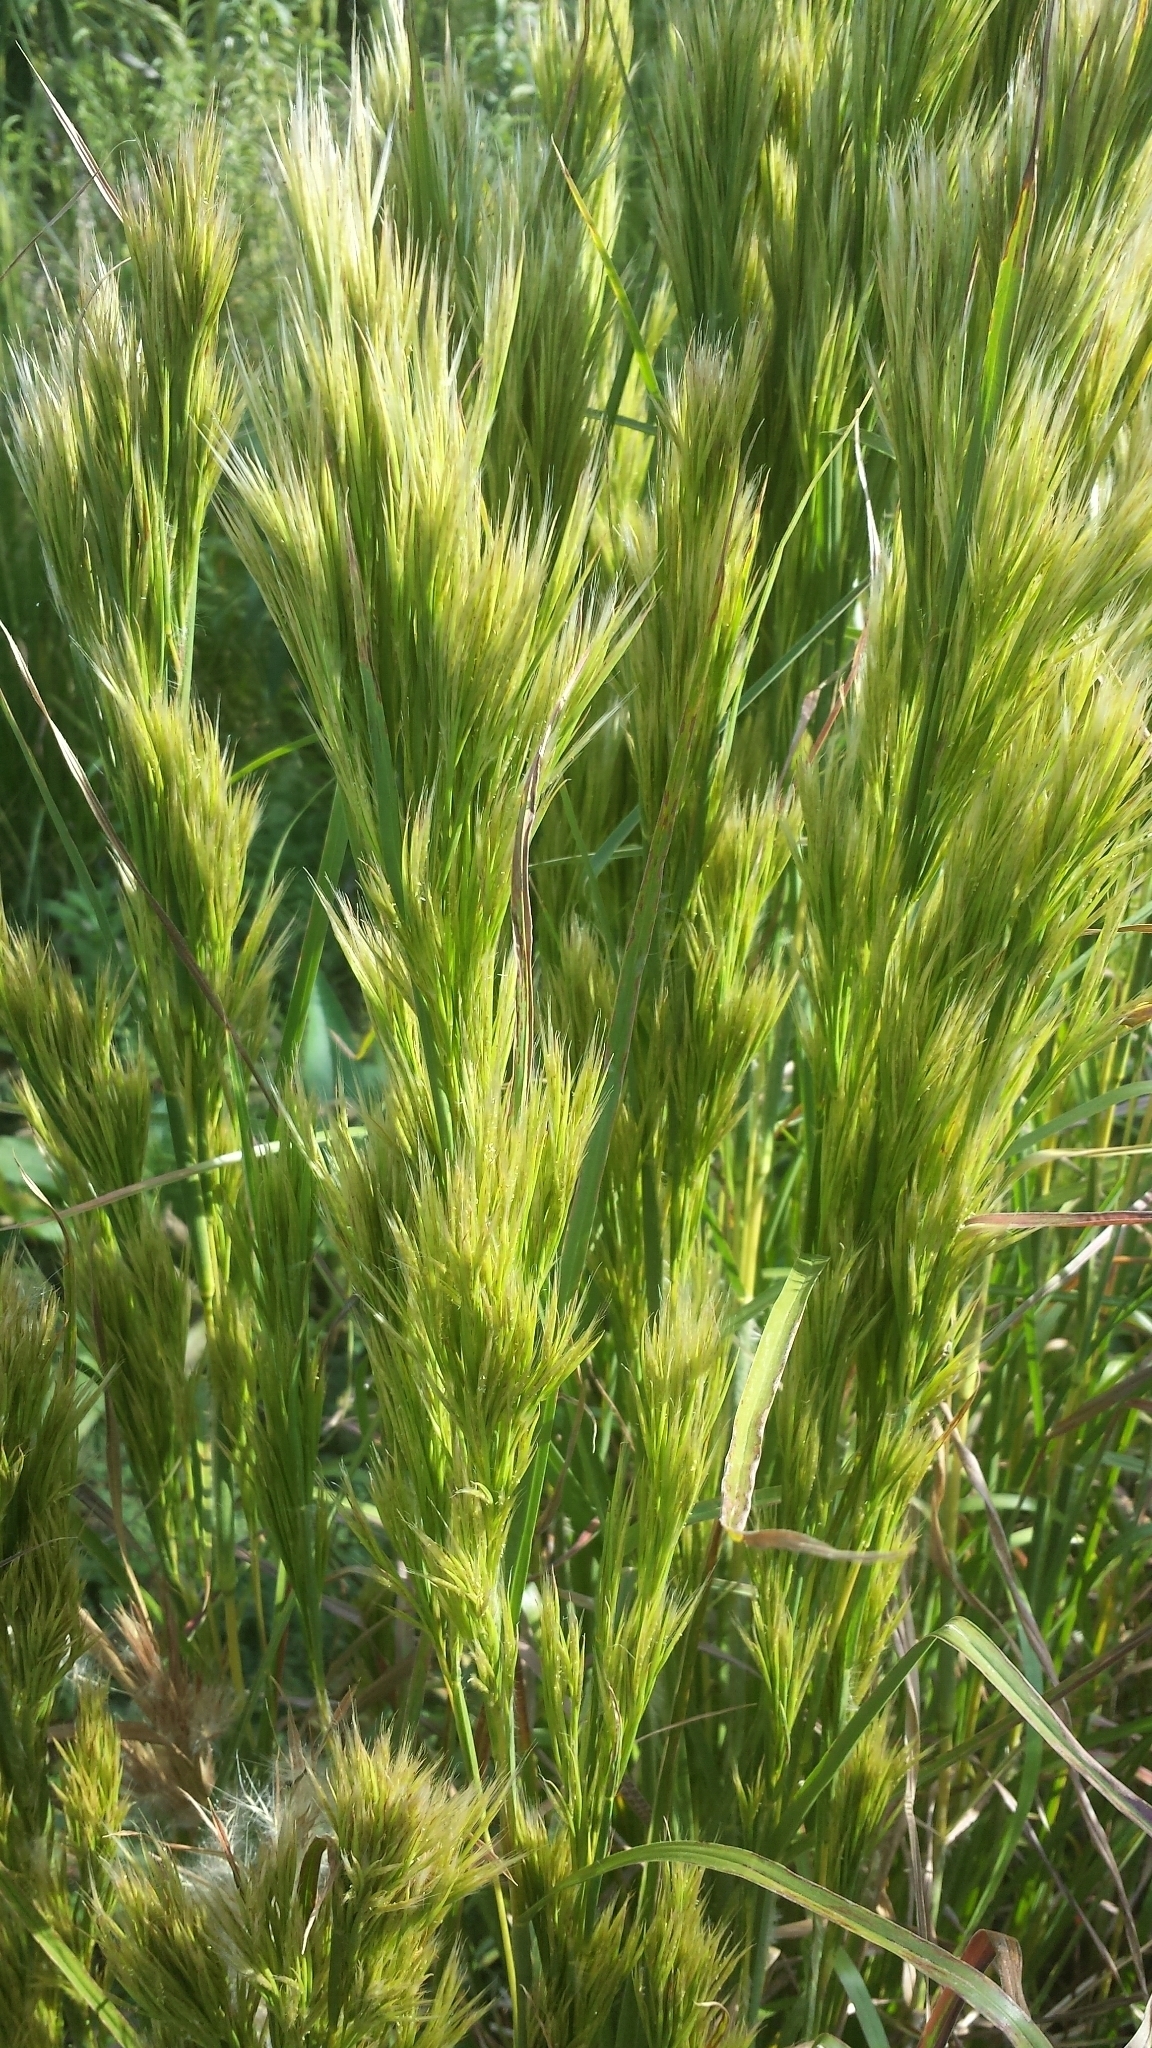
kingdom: Plantae
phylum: Tracheophyta
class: Liliopsida
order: Poales
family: Poaceae
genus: Andropogon
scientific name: Andropogon tenuispatheus
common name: Bushy bluestem
